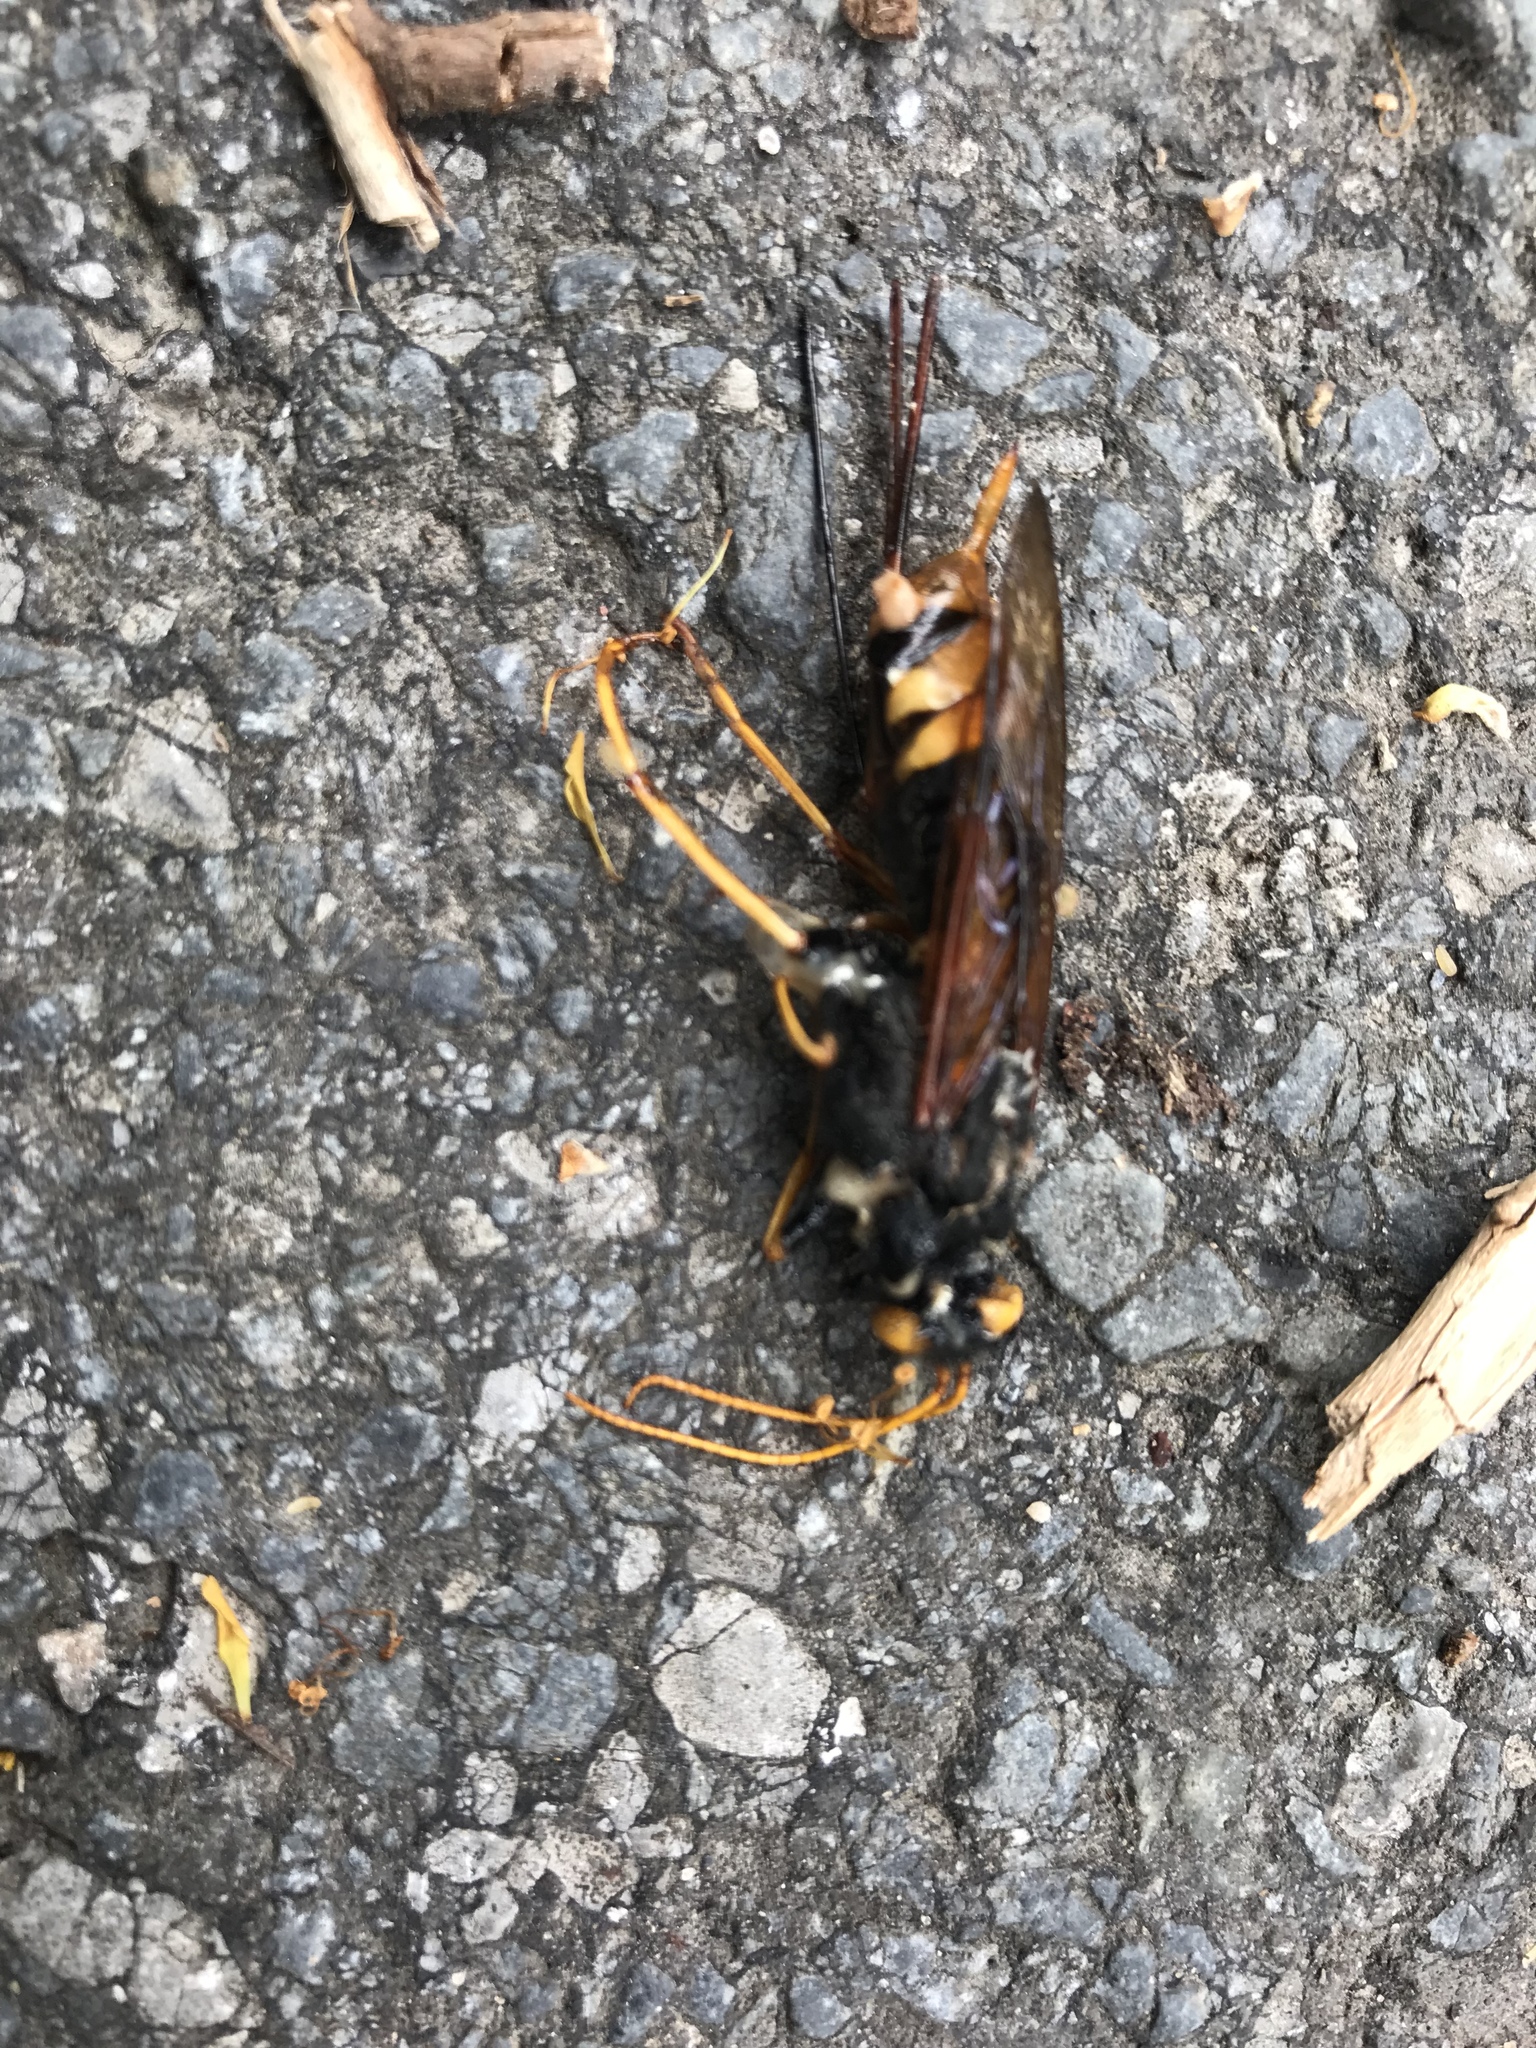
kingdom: Animalia
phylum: Arthropoda
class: Insecta
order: Hymenoptera
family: Siricidae
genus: Urocerus
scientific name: Urocerus gigas
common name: Giant woodwasp
